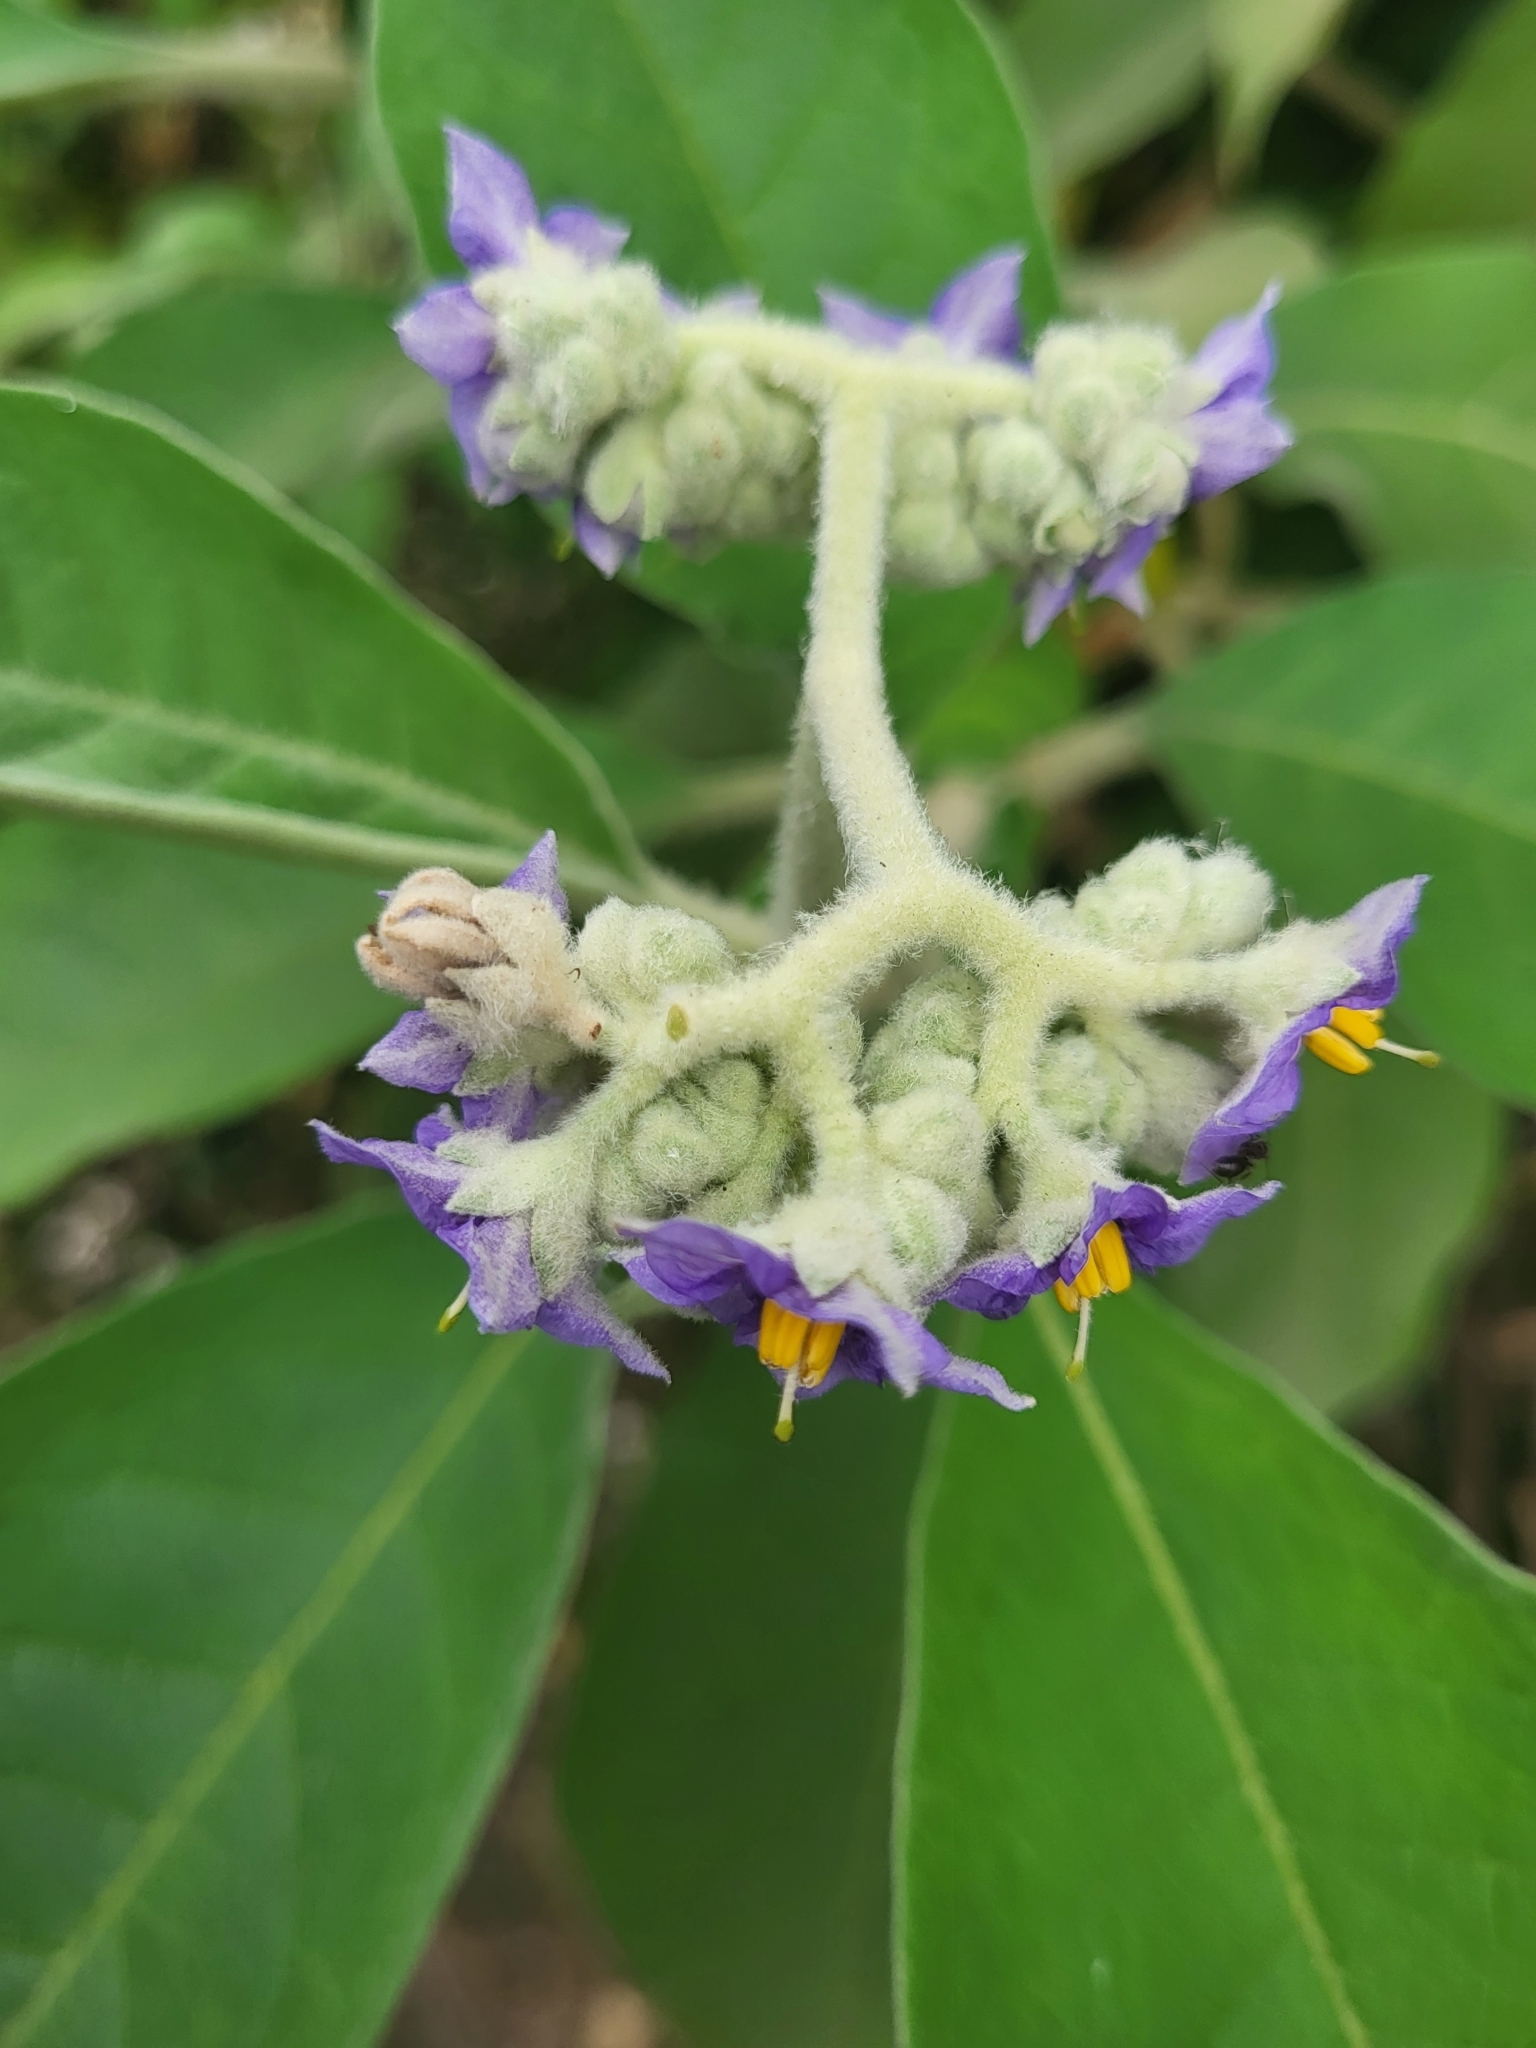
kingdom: Plantae
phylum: Tracheophyta
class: Magnoliopsida
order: Solanales
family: Solanaceae
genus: Solanum
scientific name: Solanum mauritianum
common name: Earleaf nightshade
